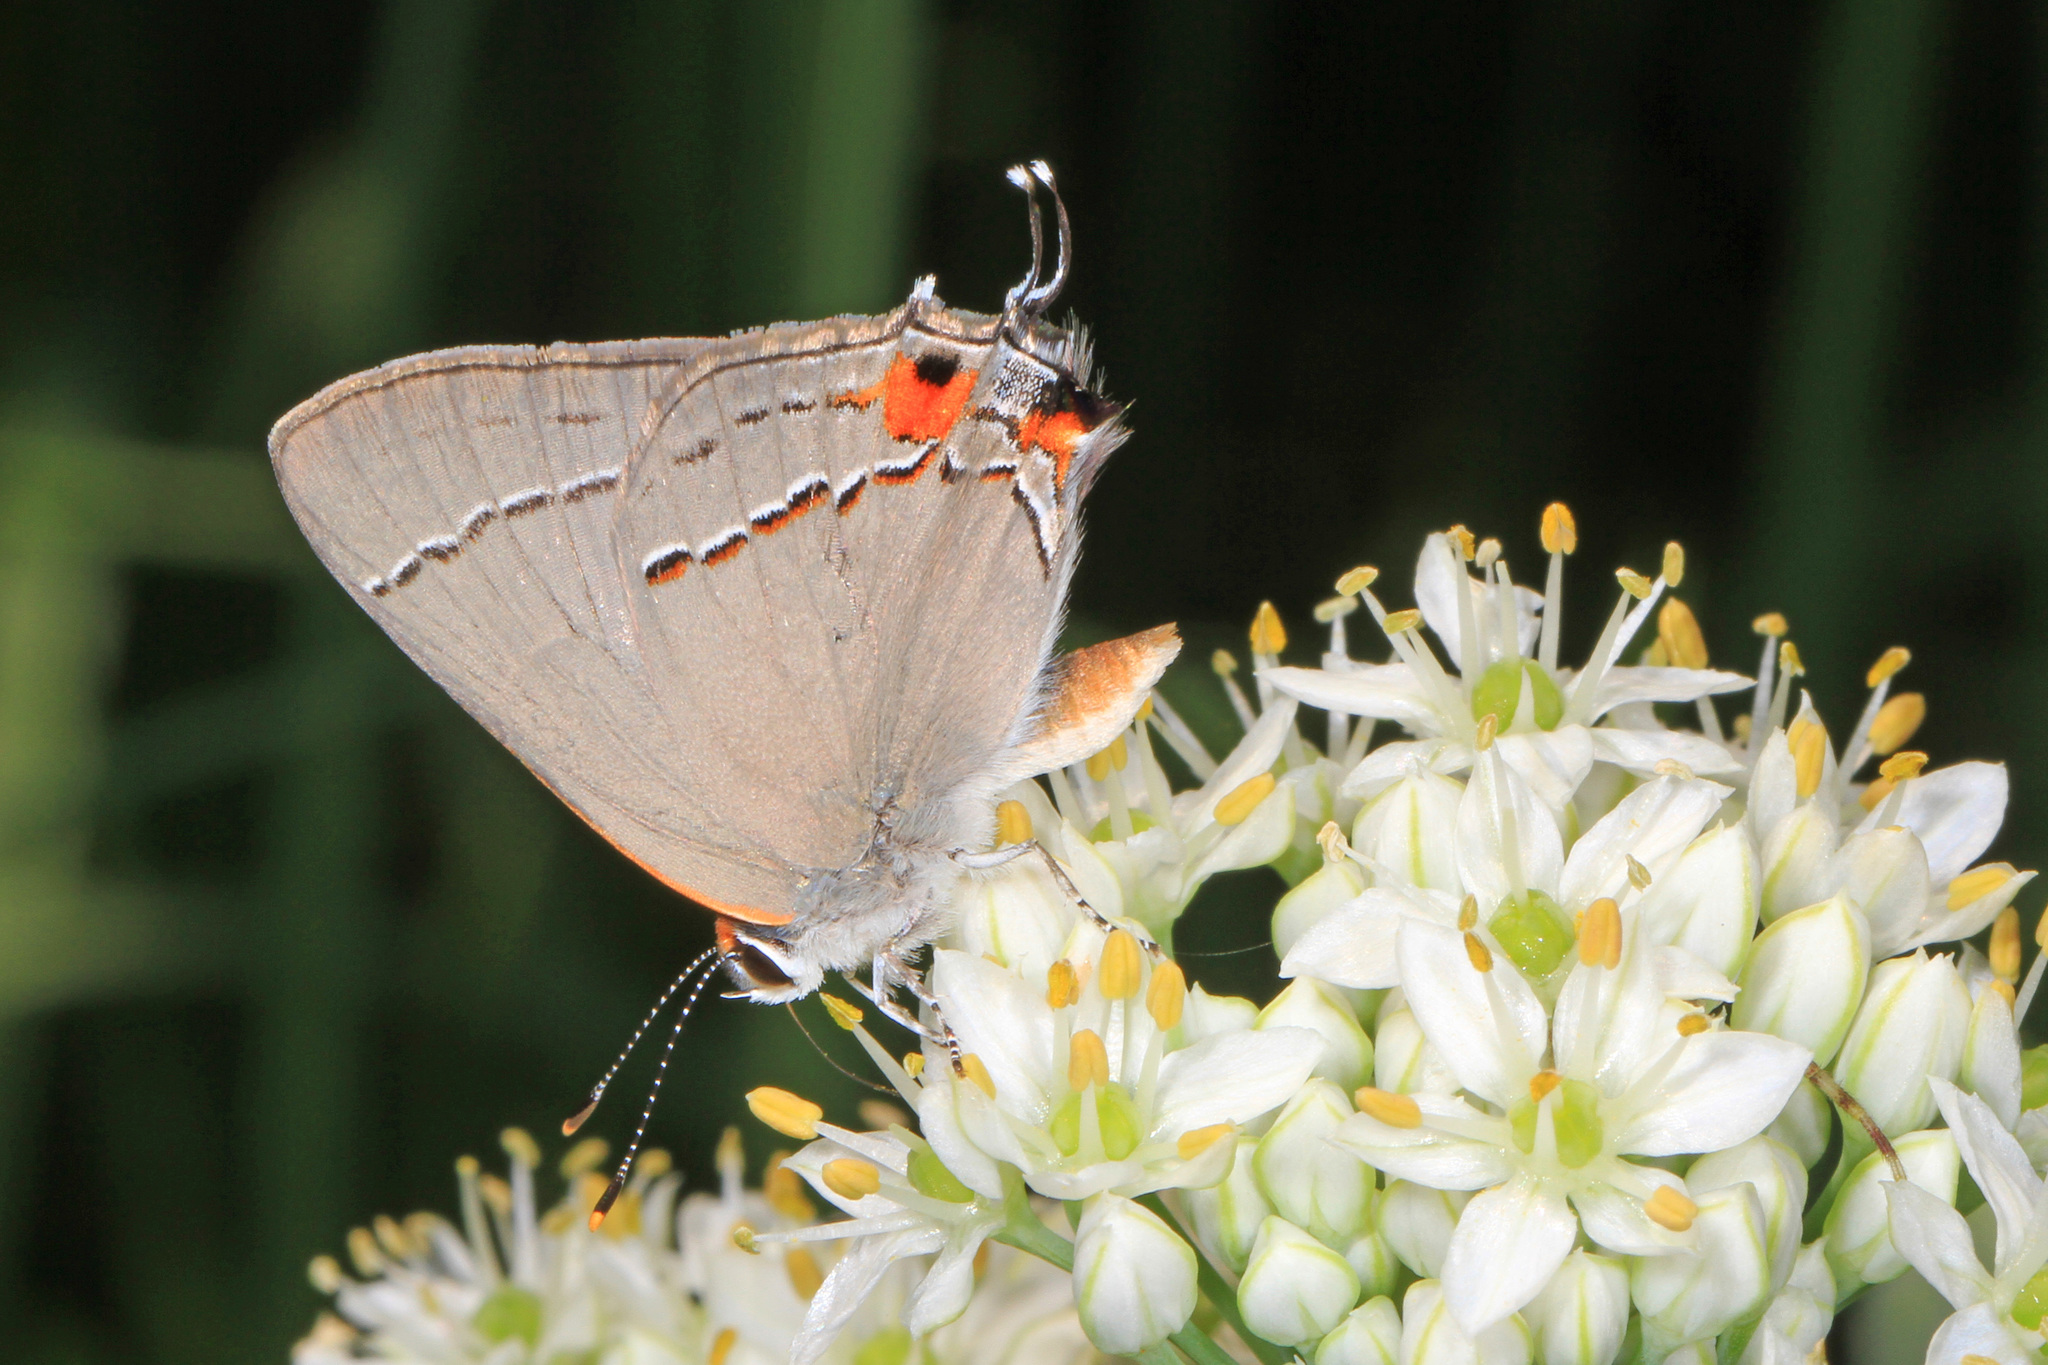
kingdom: Animalia
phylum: Arthropoda
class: Insecta
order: Lepidoptera
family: Lycaenidae
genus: Strymon
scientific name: Strymon melinus
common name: Gray hairstreak
